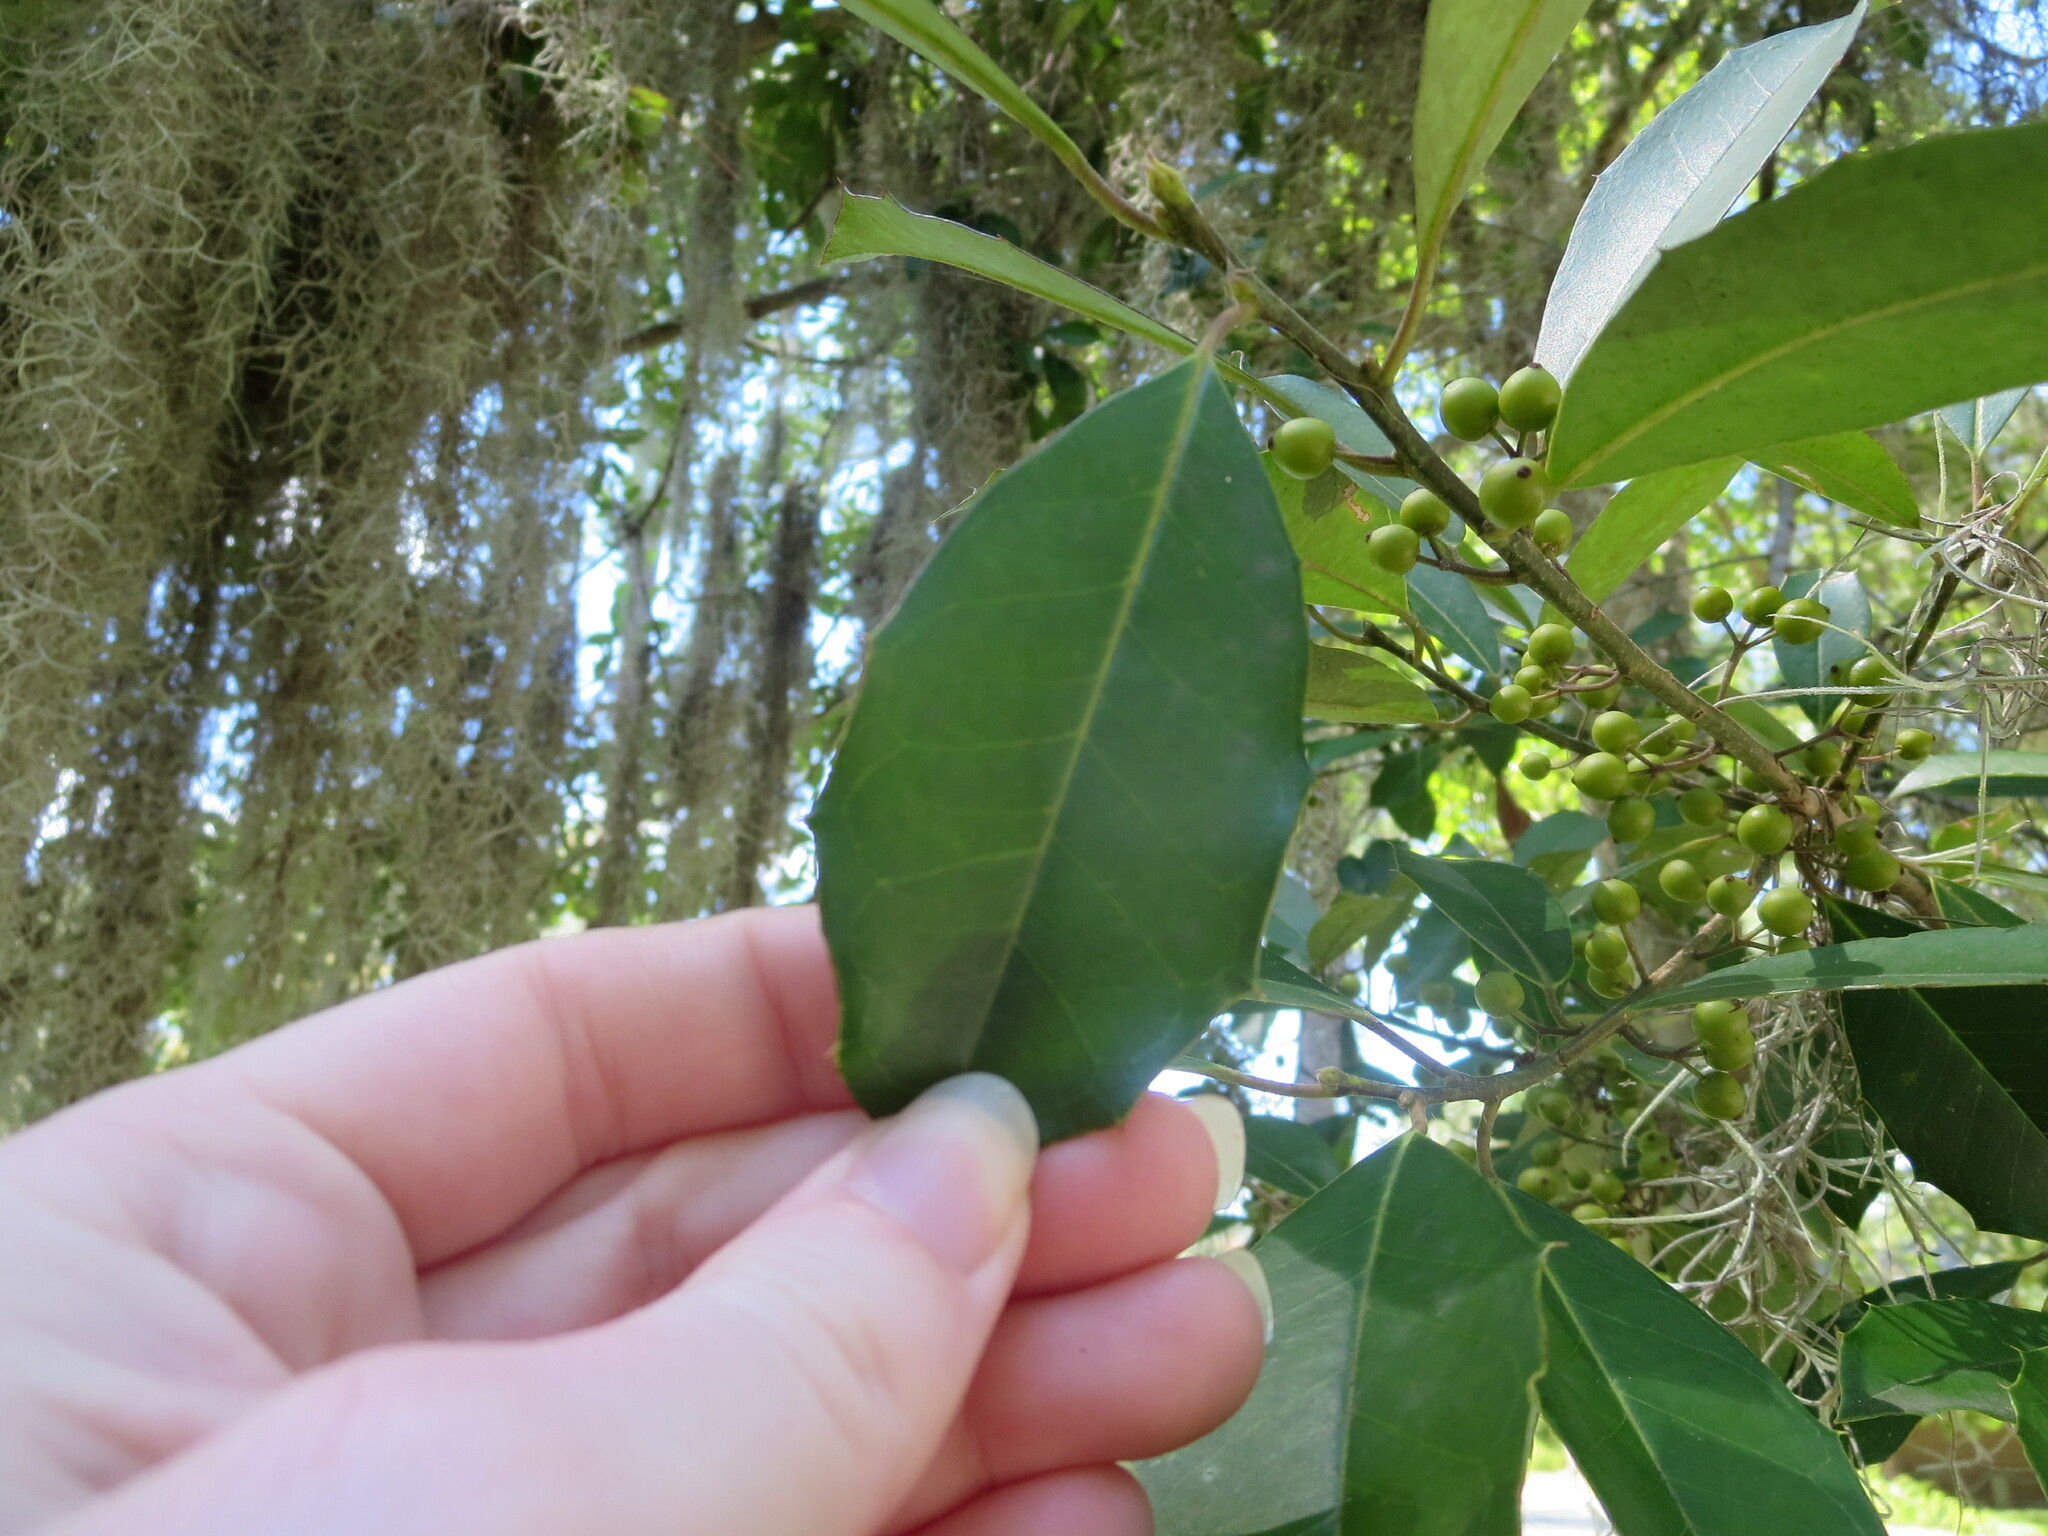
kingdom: Plantae
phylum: Tracheophyta
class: Liliopsida
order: Poales
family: Bromeliaceae
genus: Tillandsia
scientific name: Tillandsia usneoides
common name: Spanish moss
